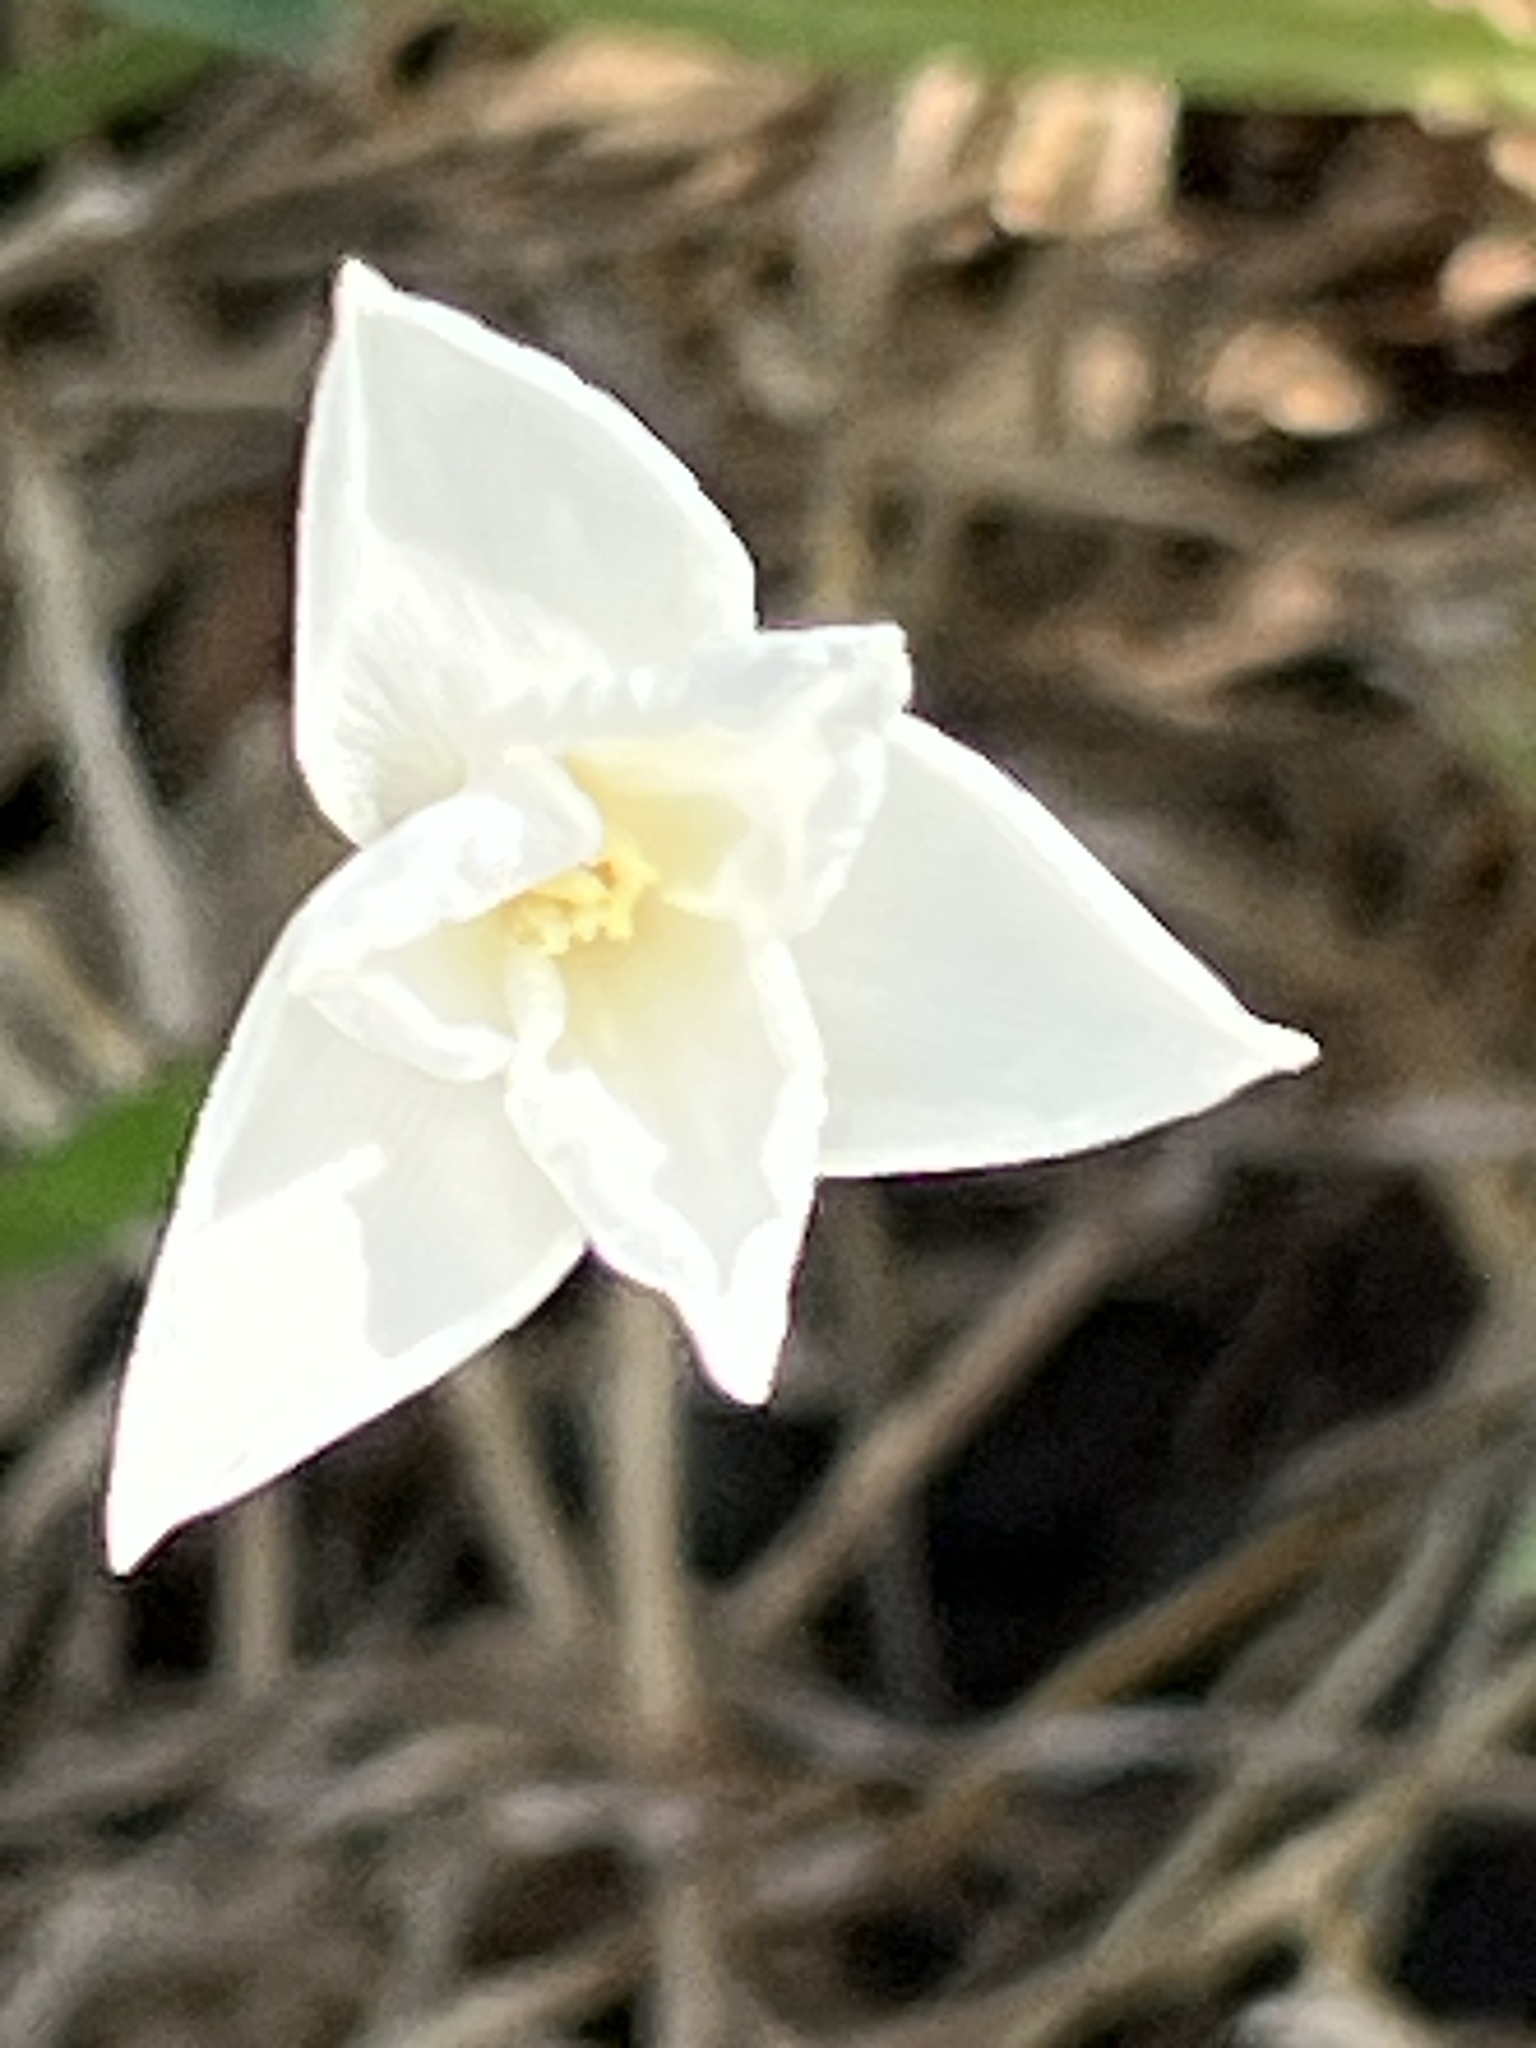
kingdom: Plantae
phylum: Tracheophyta
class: Liliopsida
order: Asparagales
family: Amaryllidaceae
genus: Zephyranthes
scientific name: Zephyranthes chlorosolen
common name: Evening rain-lily
